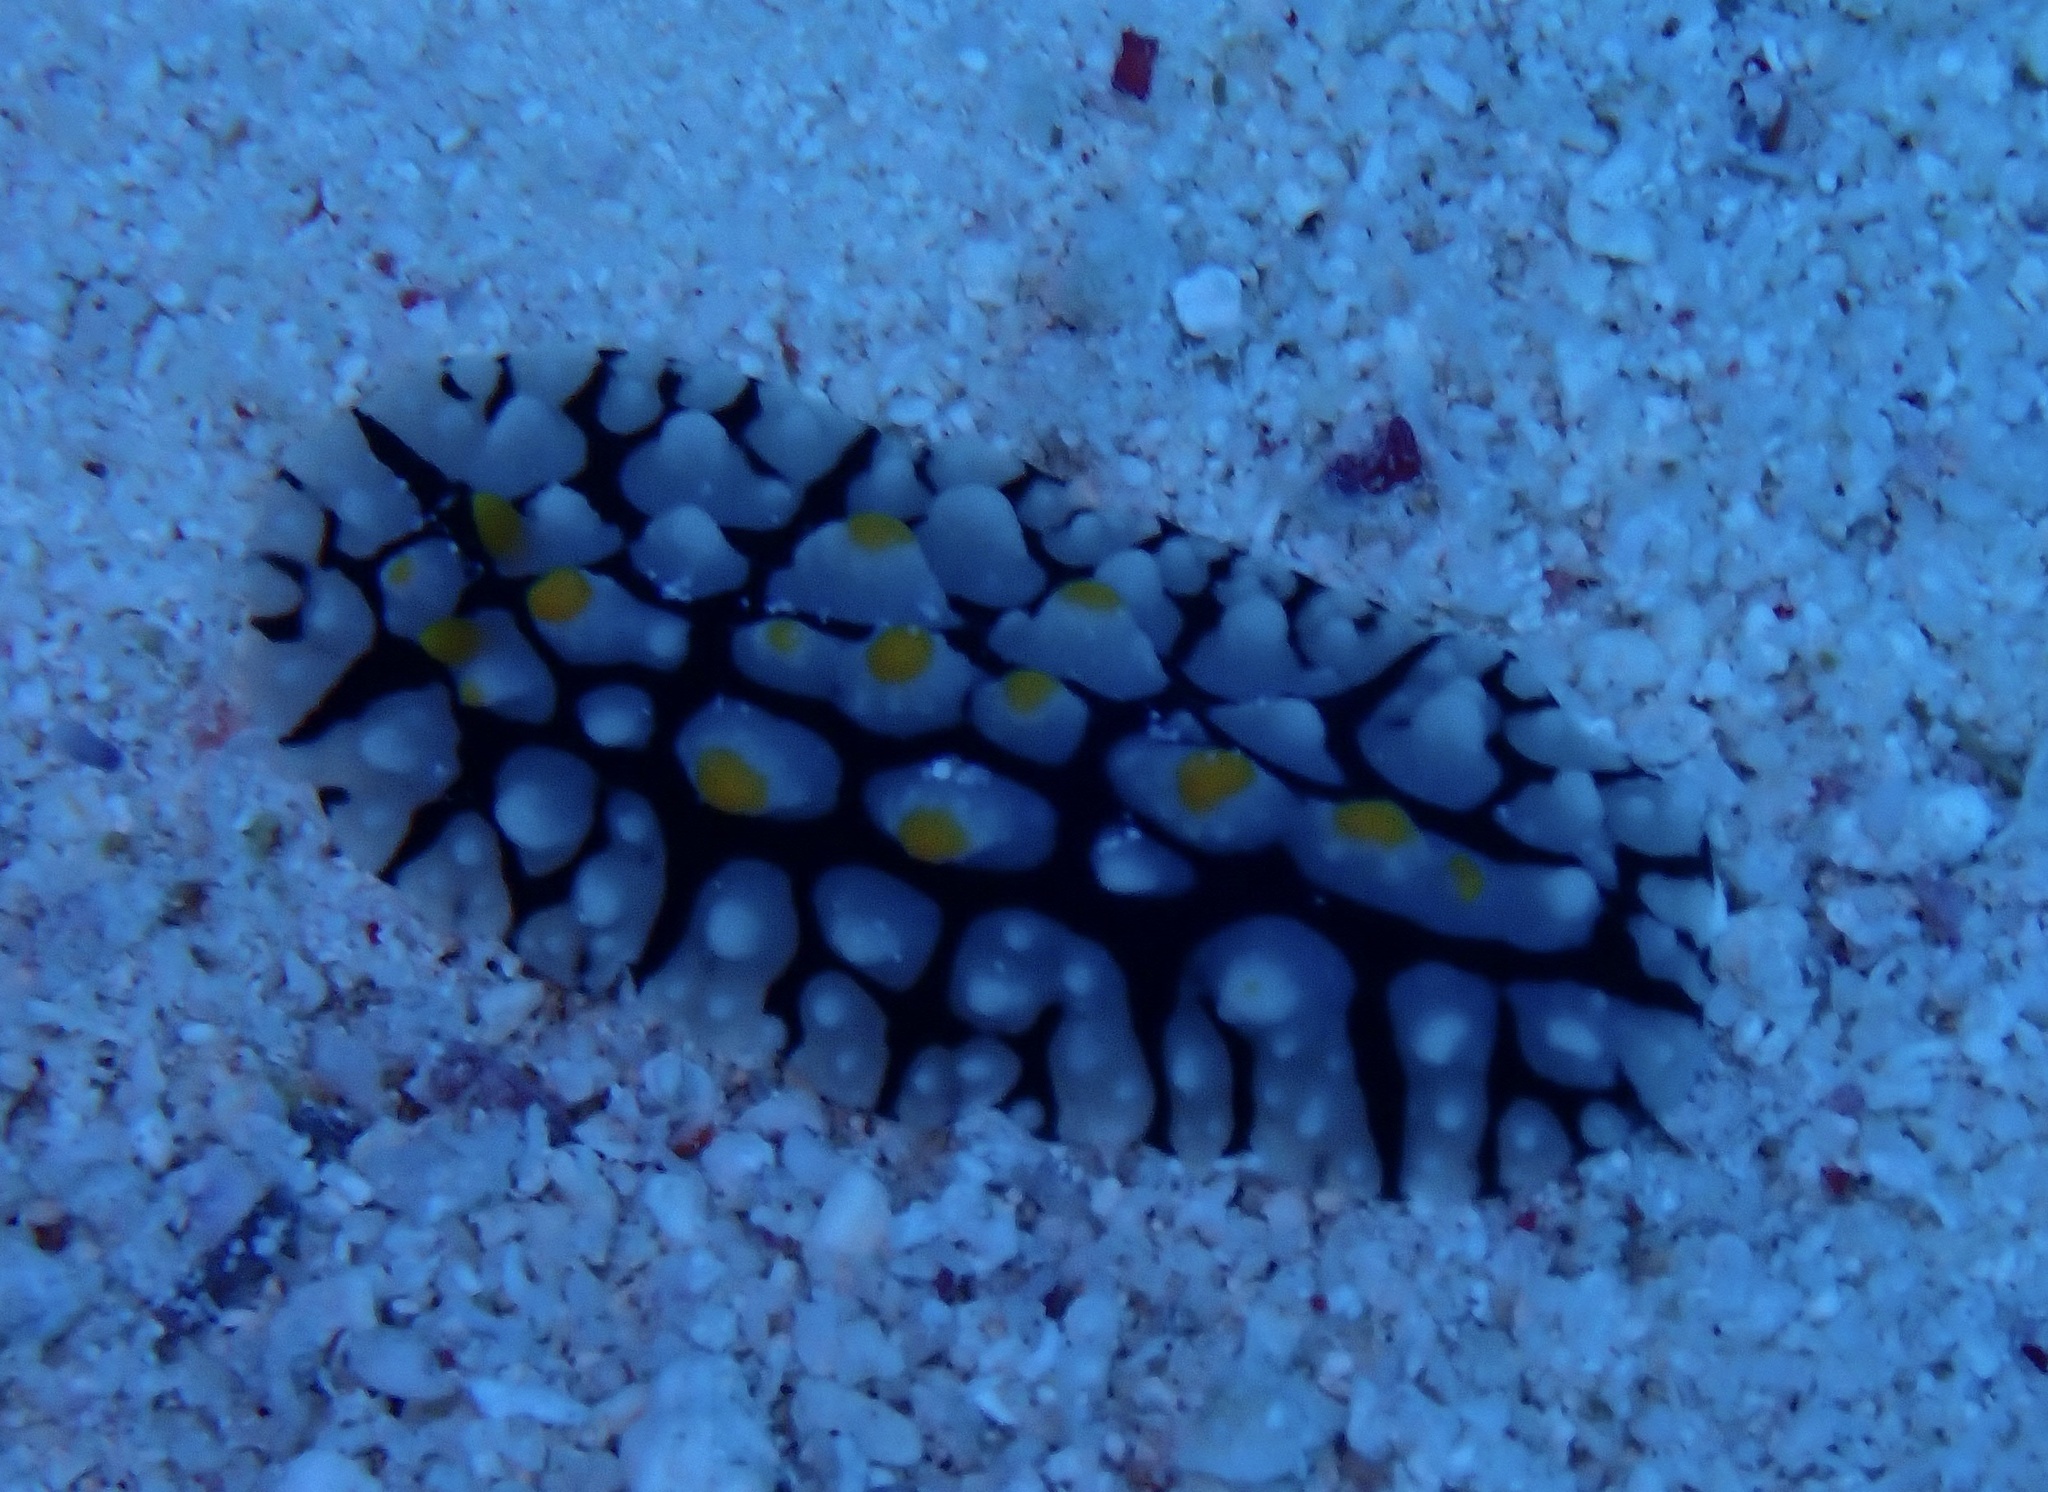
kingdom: Animalia
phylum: Mollusca
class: Gastropoda
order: Nudibranchia
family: Phyllidiidae
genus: Phyllidia
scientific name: Phyllidia multifaria
